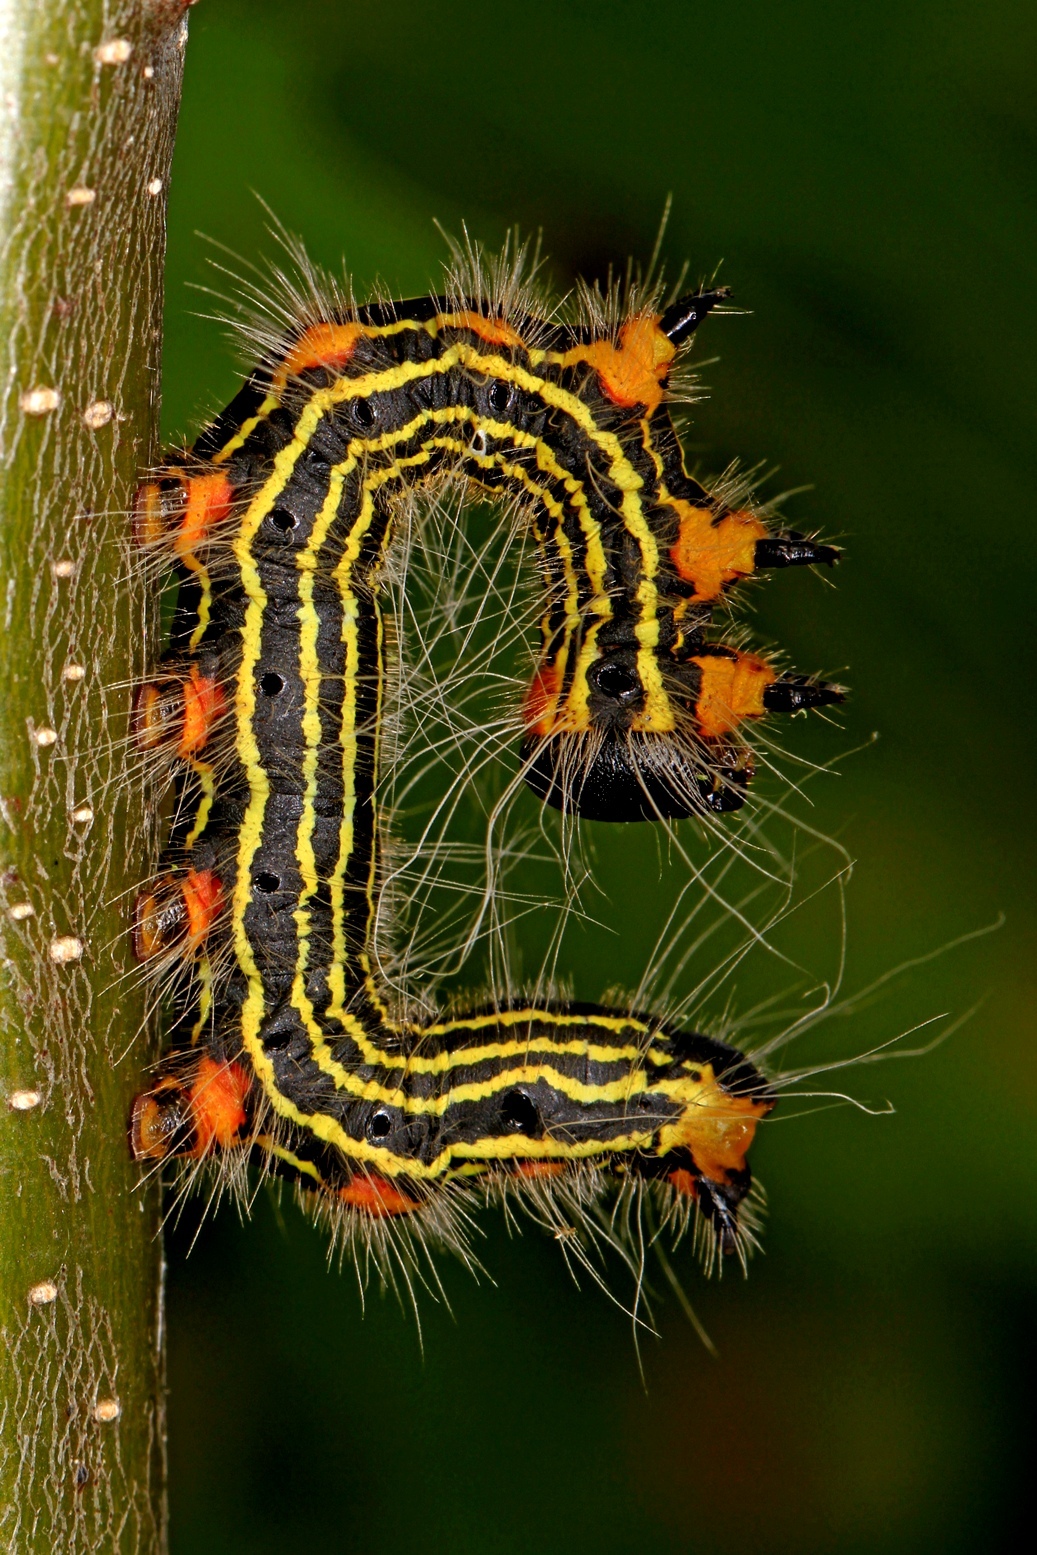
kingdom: Animalia
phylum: Arthropoda
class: Insecta
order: Lepidoptera
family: Notodontidae
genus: Datana
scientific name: Datana ministra
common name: Yellow-necked caterpillar moth
